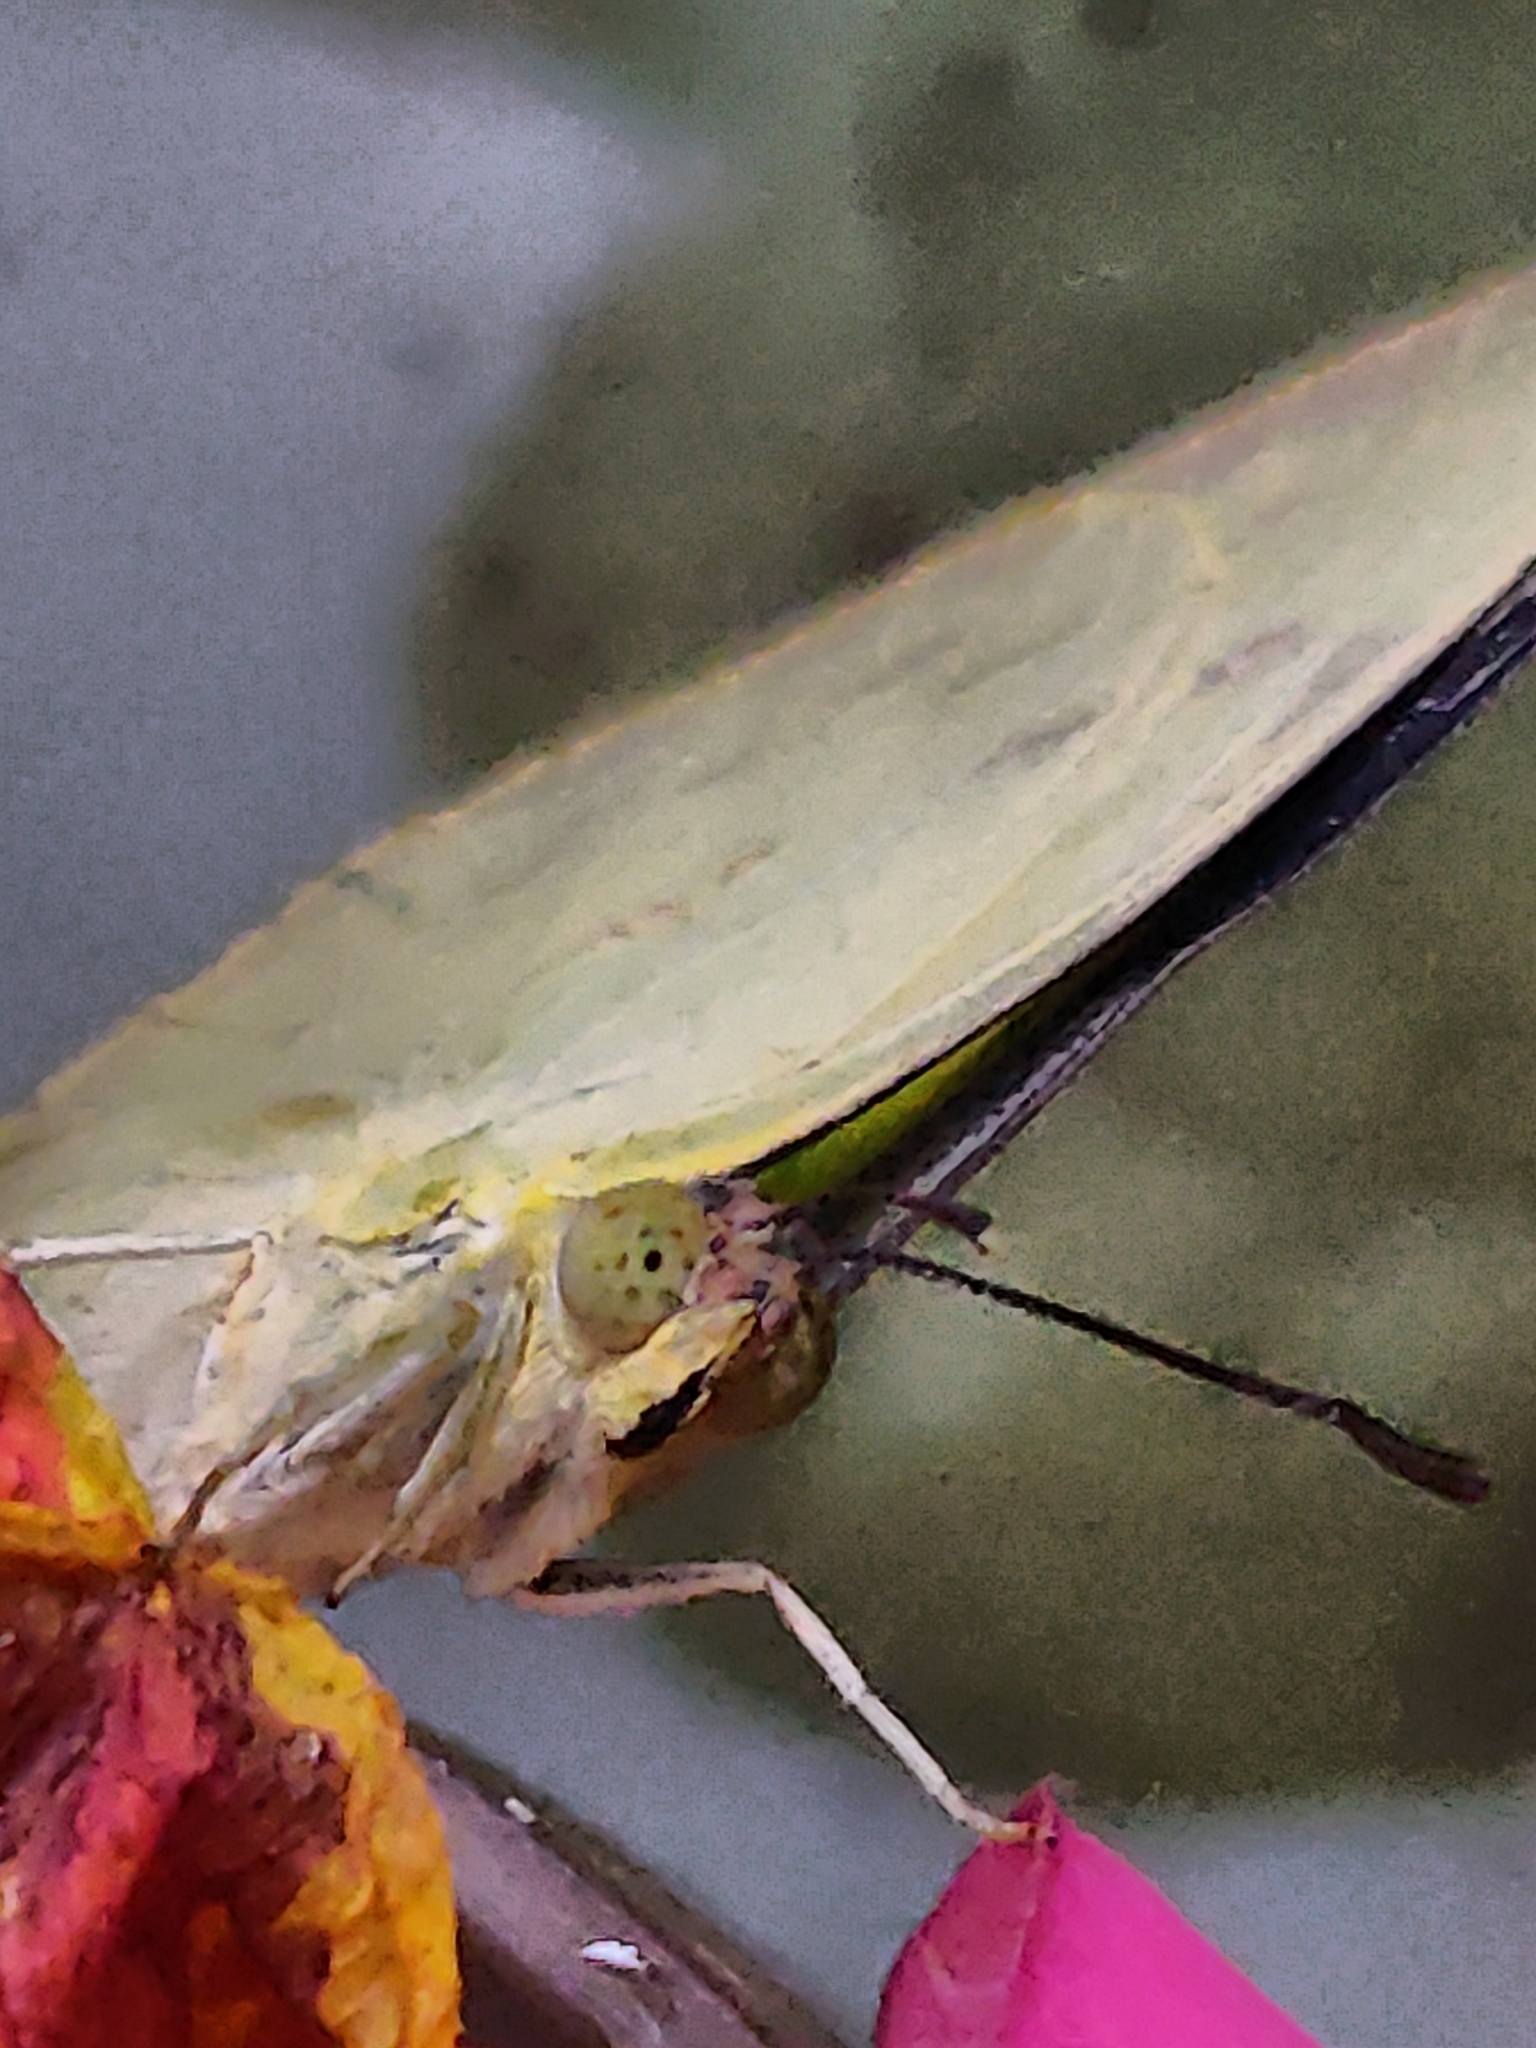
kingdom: Animalia
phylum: Arthropoda
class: Insecta
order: Lepidoptera
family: Pieridae
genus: Catopsilia
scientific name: Catopsilia pomona
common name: Common emigrant
